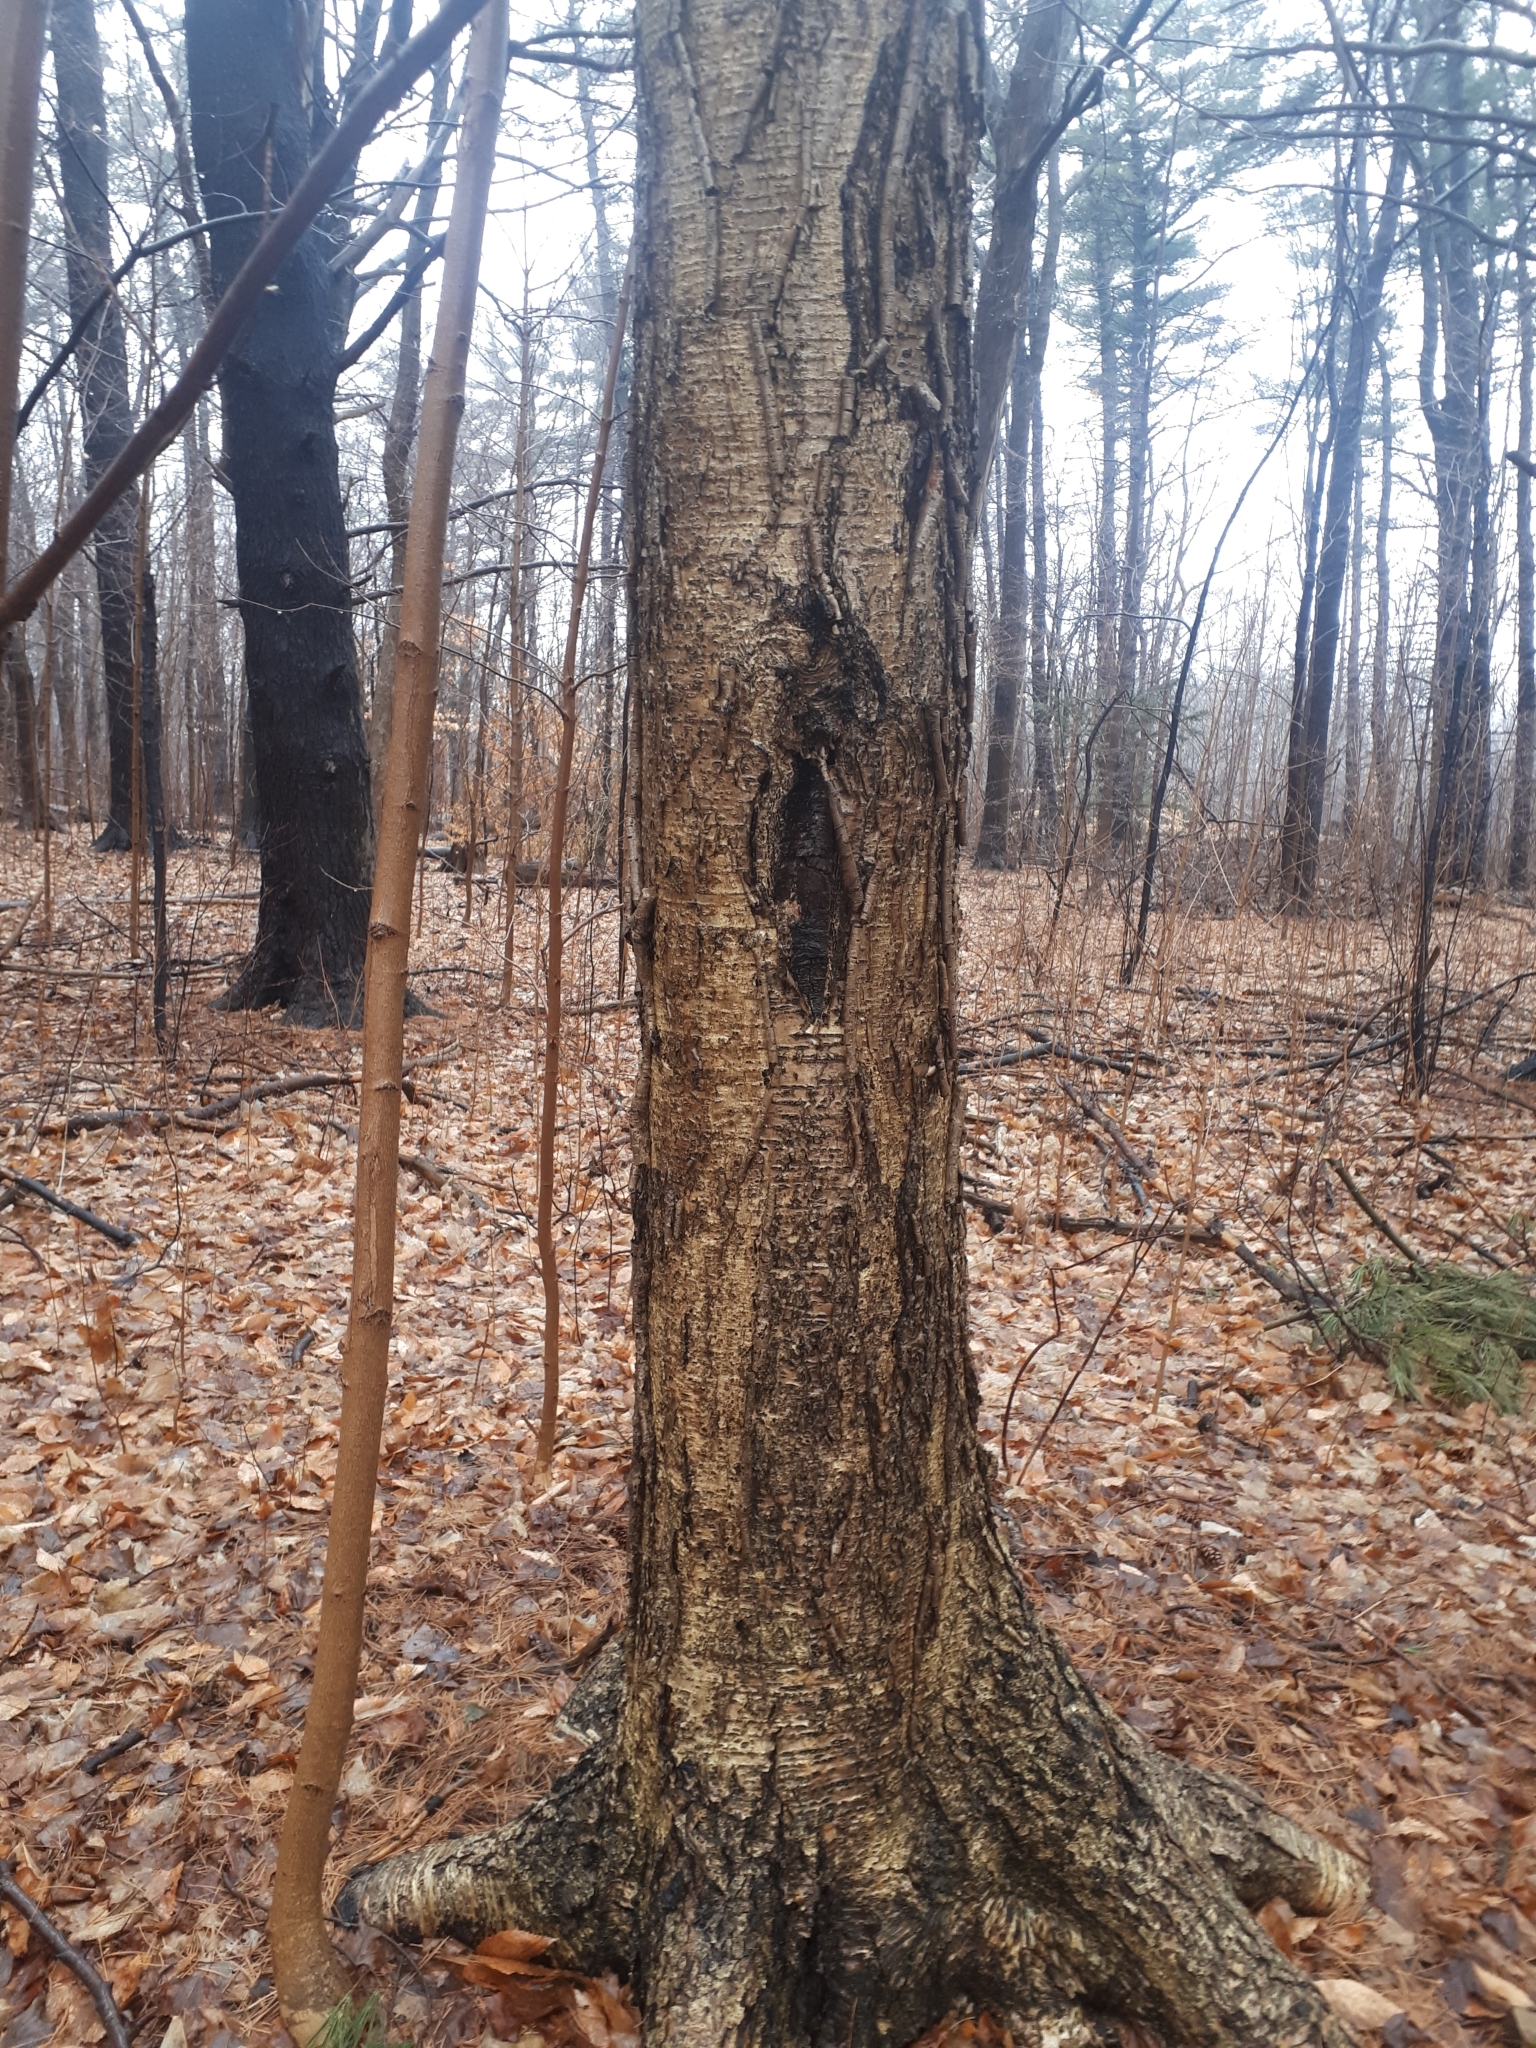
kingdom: Plantae
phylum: Tracheophyta
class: Magnoliopsida
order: Fagales
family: Betulaceae
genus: Betula
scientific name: Betula alleghaniensis
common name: Yellow birch
